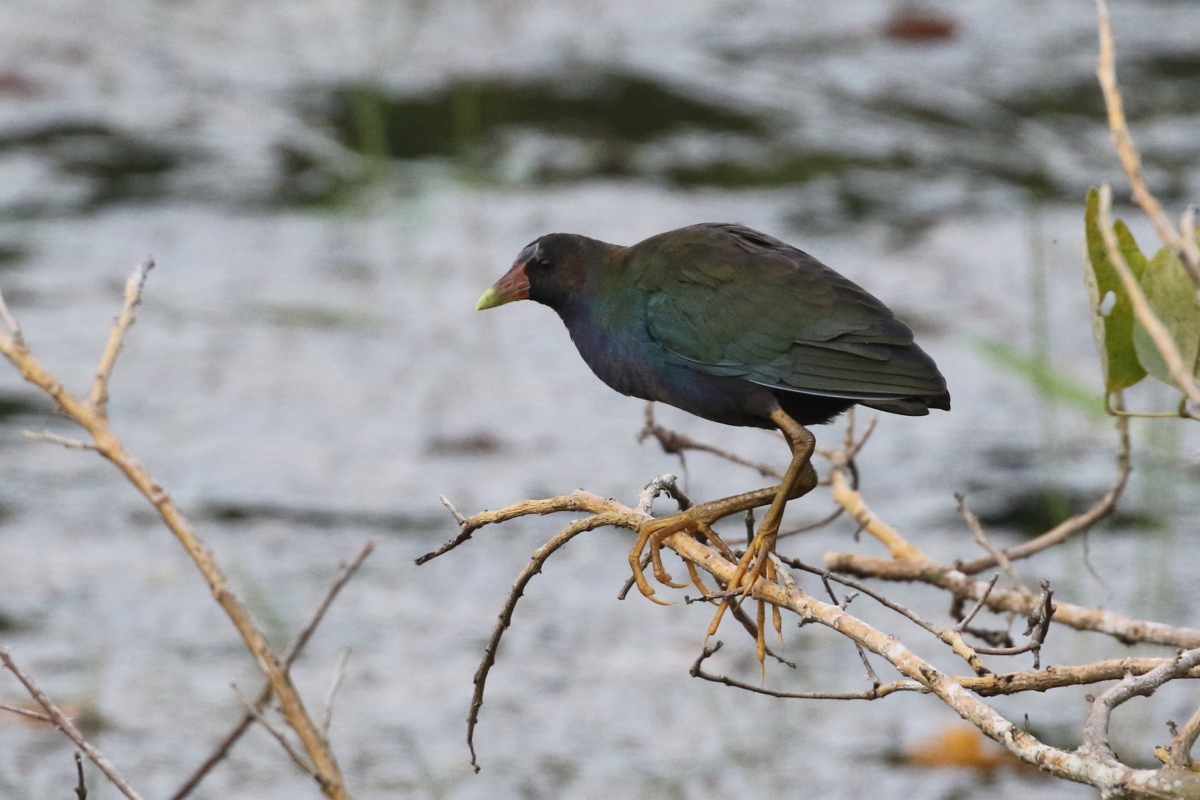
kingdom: Animalia
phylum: Chordata
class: Aves
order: Gruiformes
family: Rallidae
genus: Porphyrio
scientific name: Porphyrio martinica
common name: Purple gallinule
